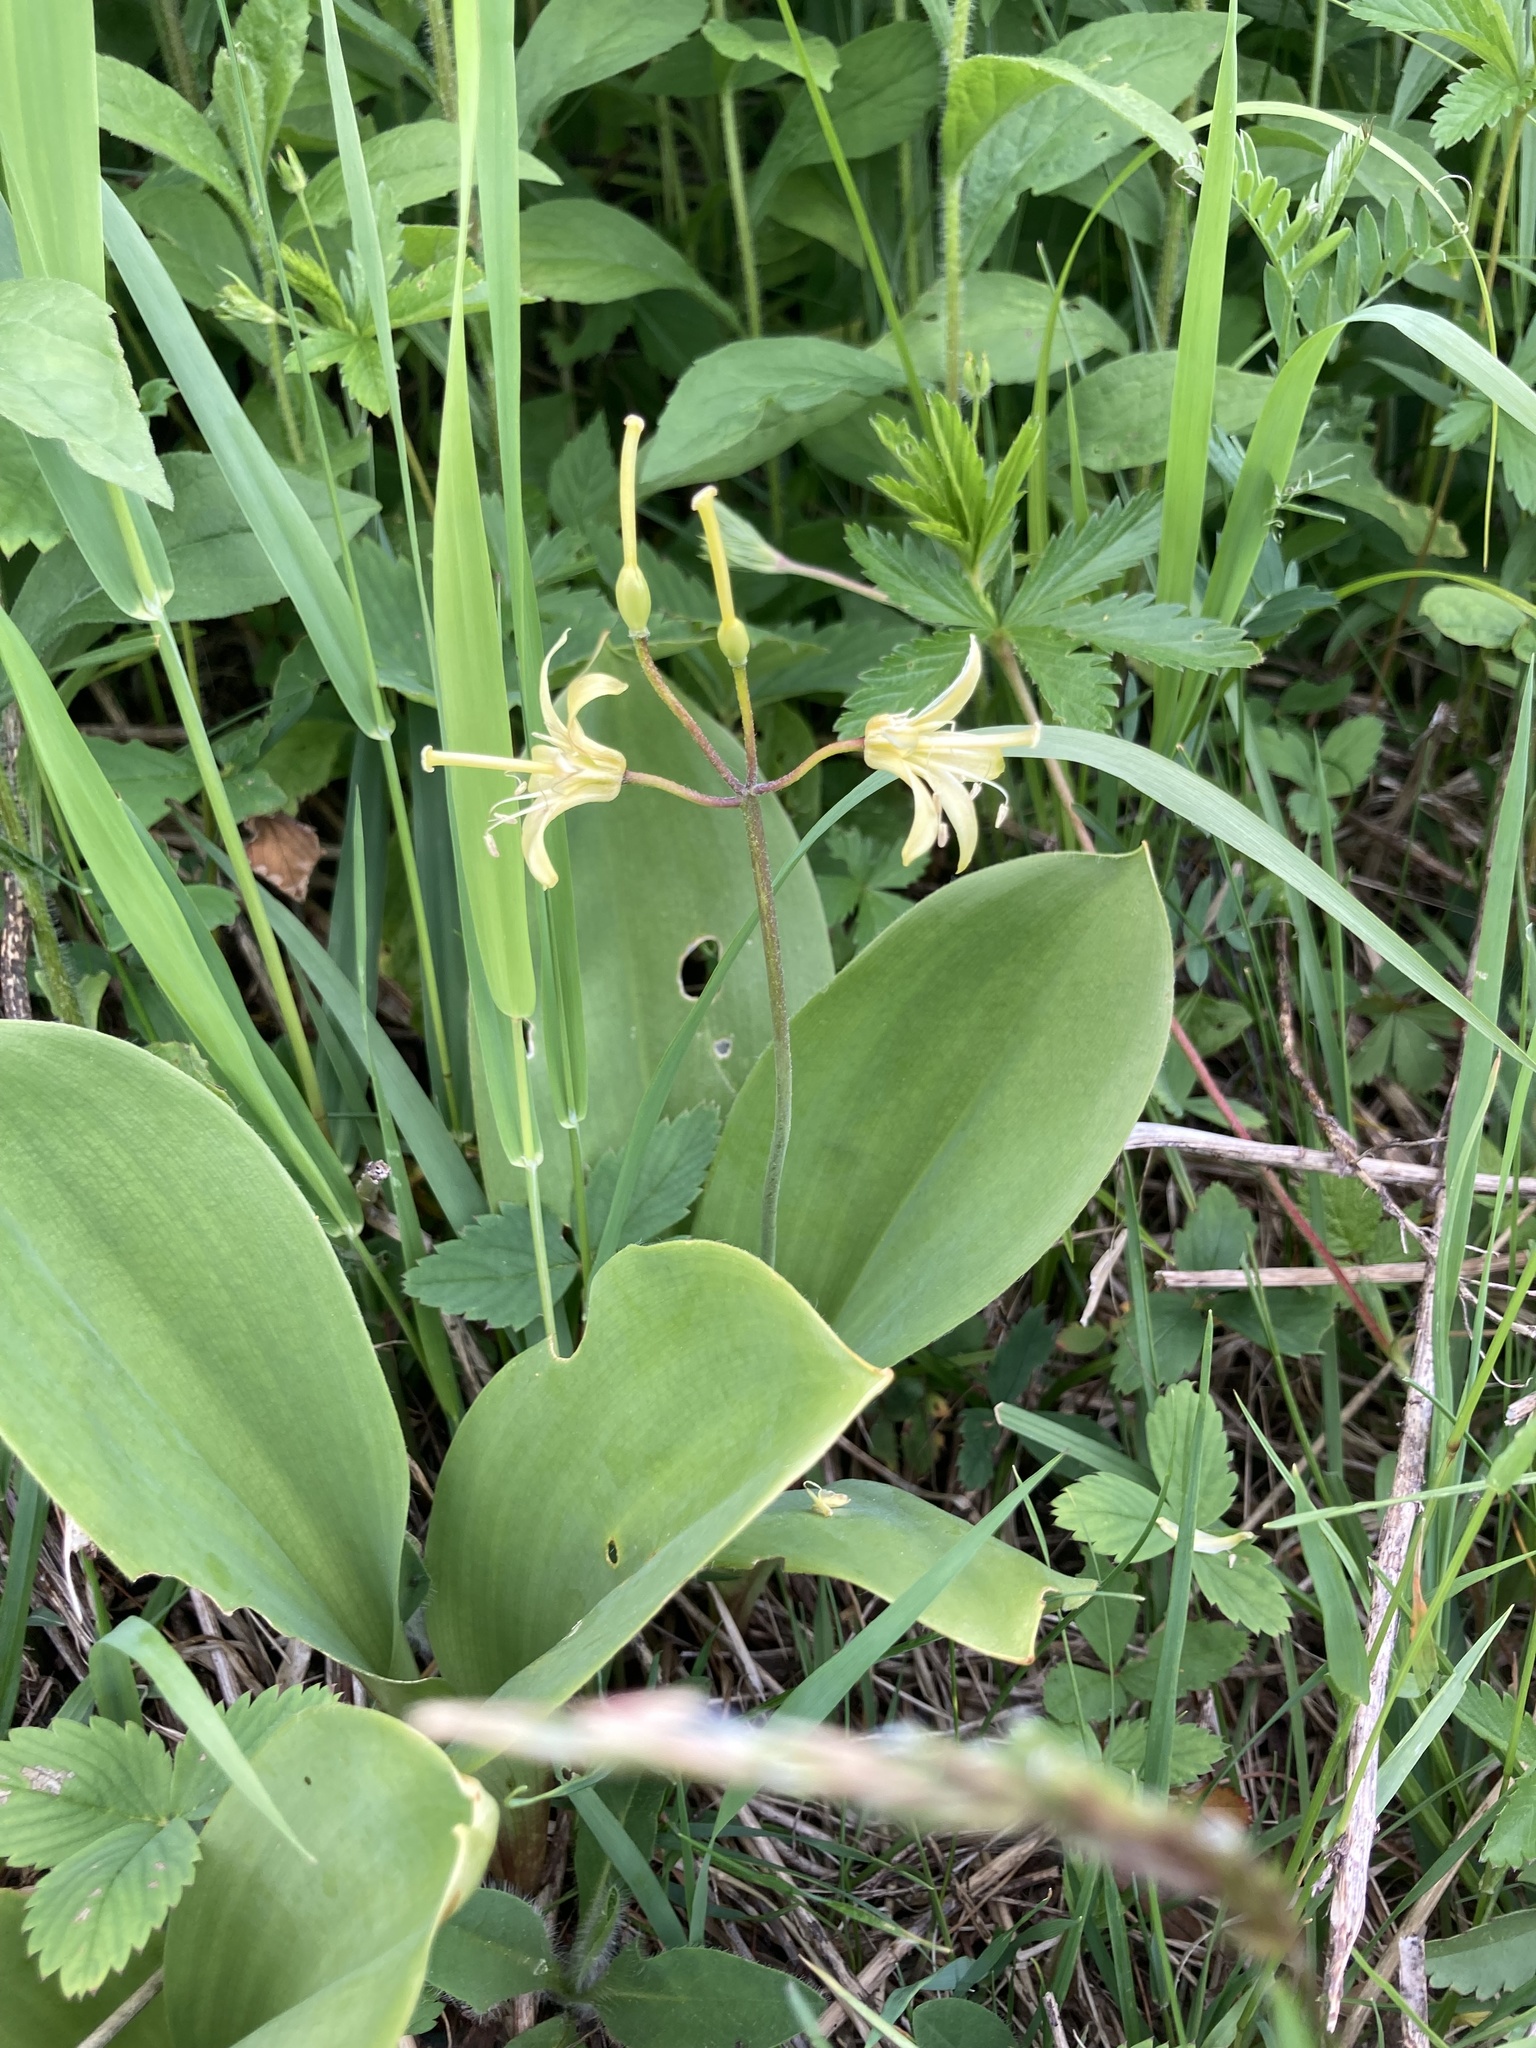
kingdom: Plantae
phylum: Tracheophyta
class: Liliopsida
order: Liliales
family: Liliaceae
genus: Clintonia
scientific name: Clintonia borealis
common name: Yellow clintonia
